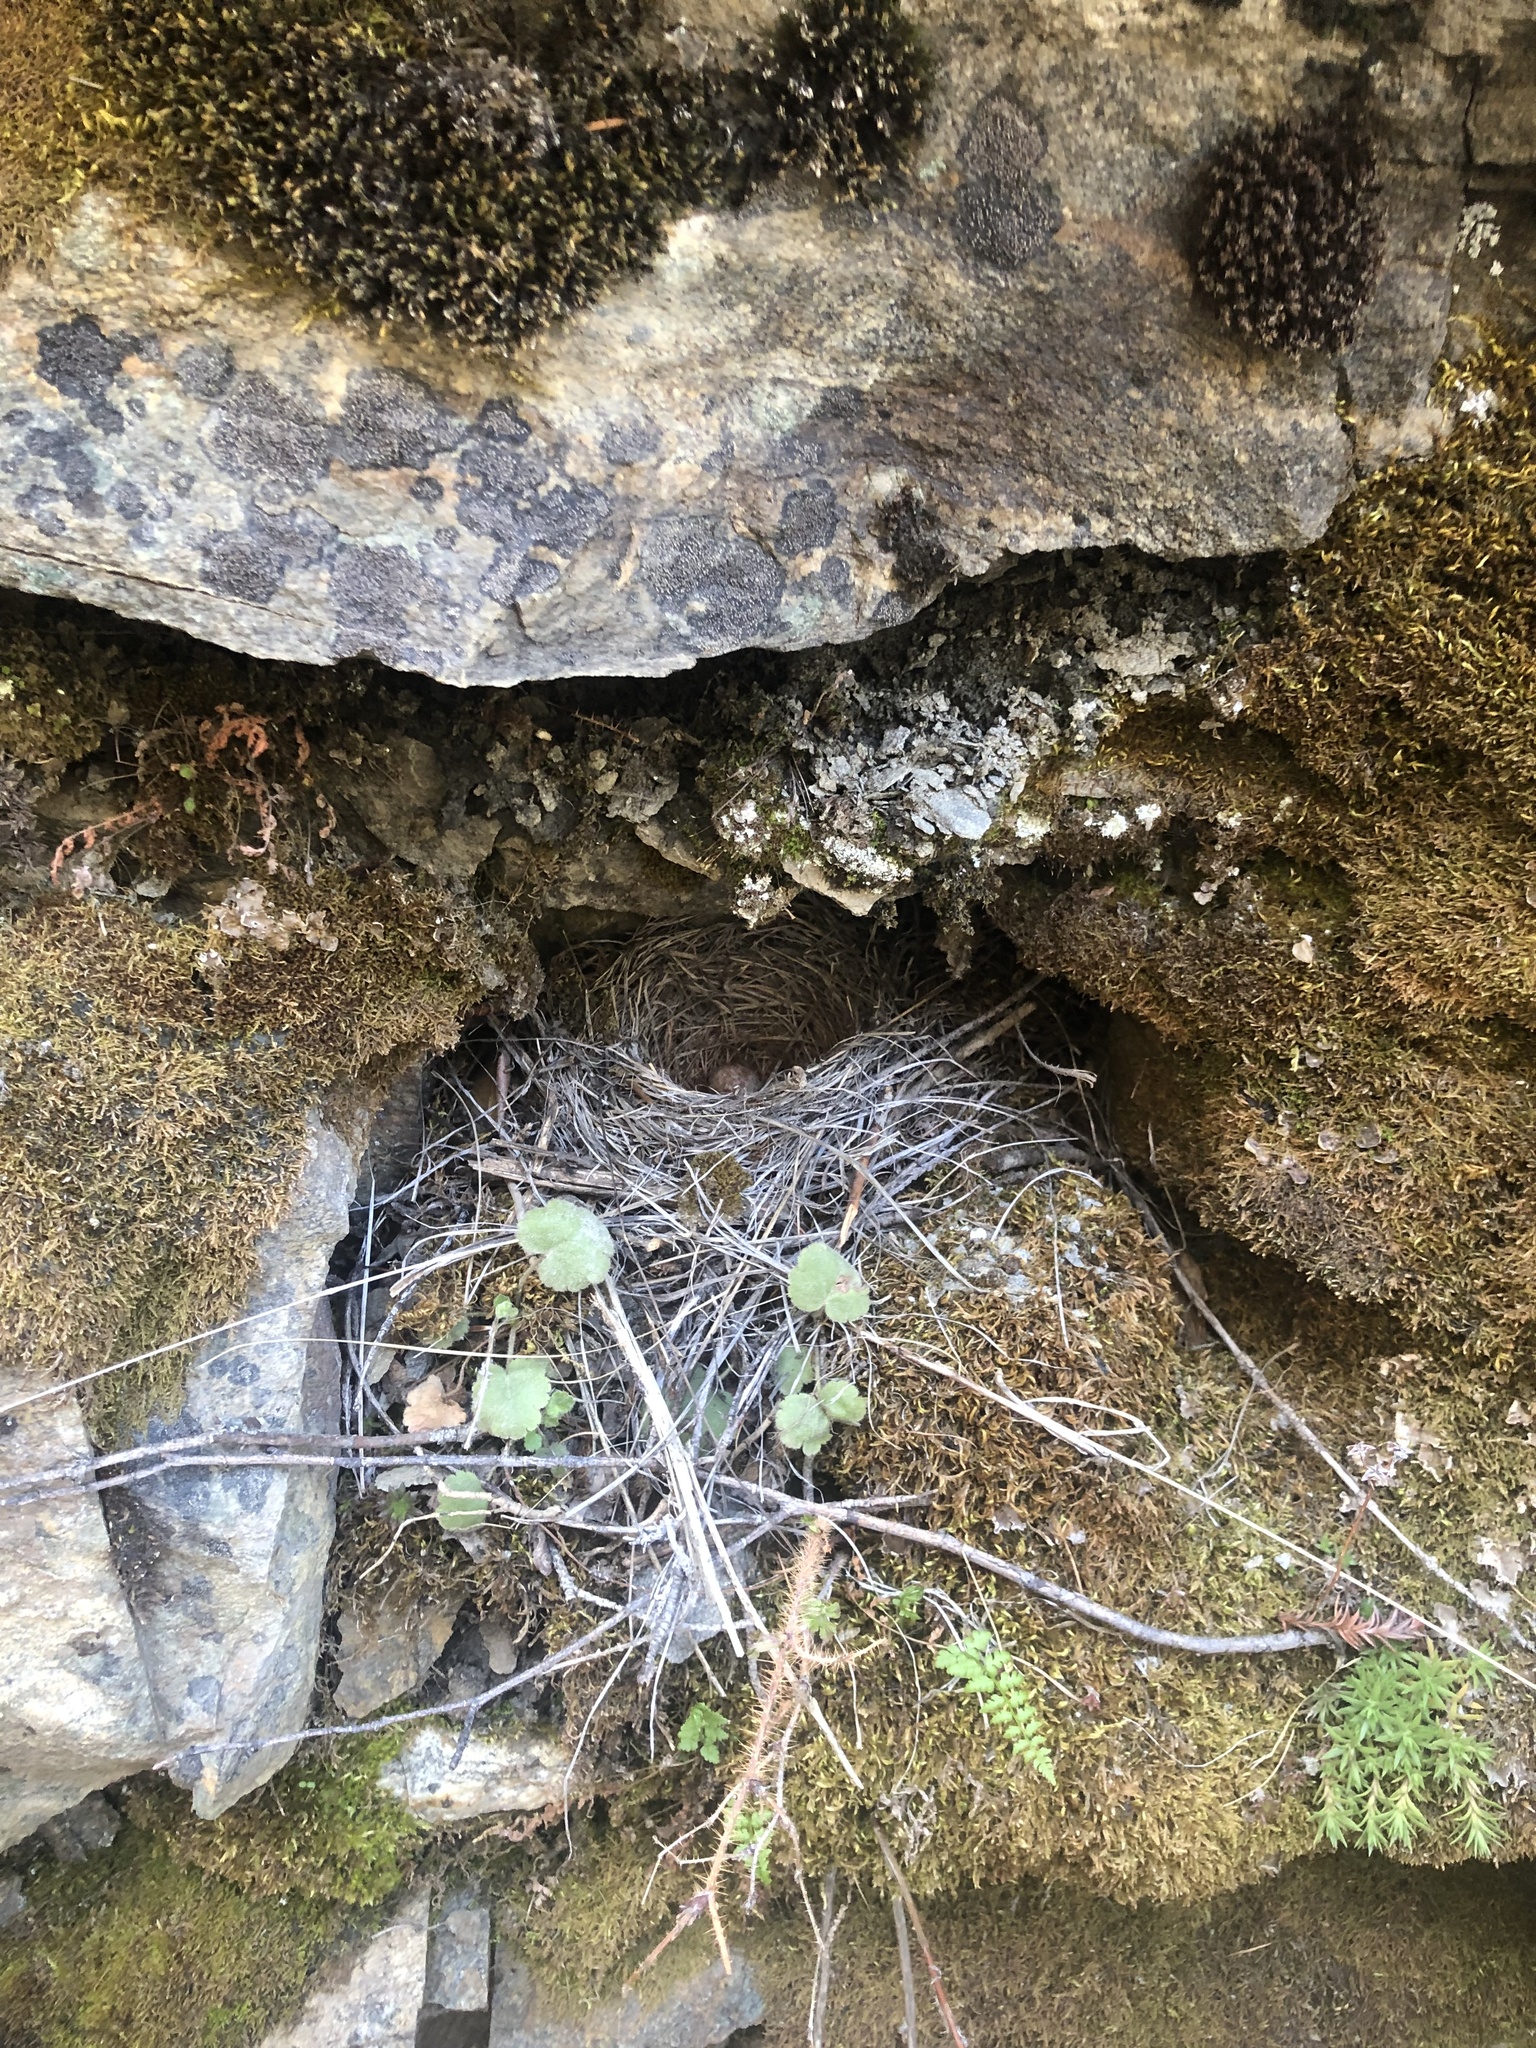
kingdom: Animalia
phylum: Chordata
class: Aves
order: Passeriformes
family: Turdidae
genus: Myadestes
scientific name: Myadestes townsendi
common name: Townsend's solitaire
